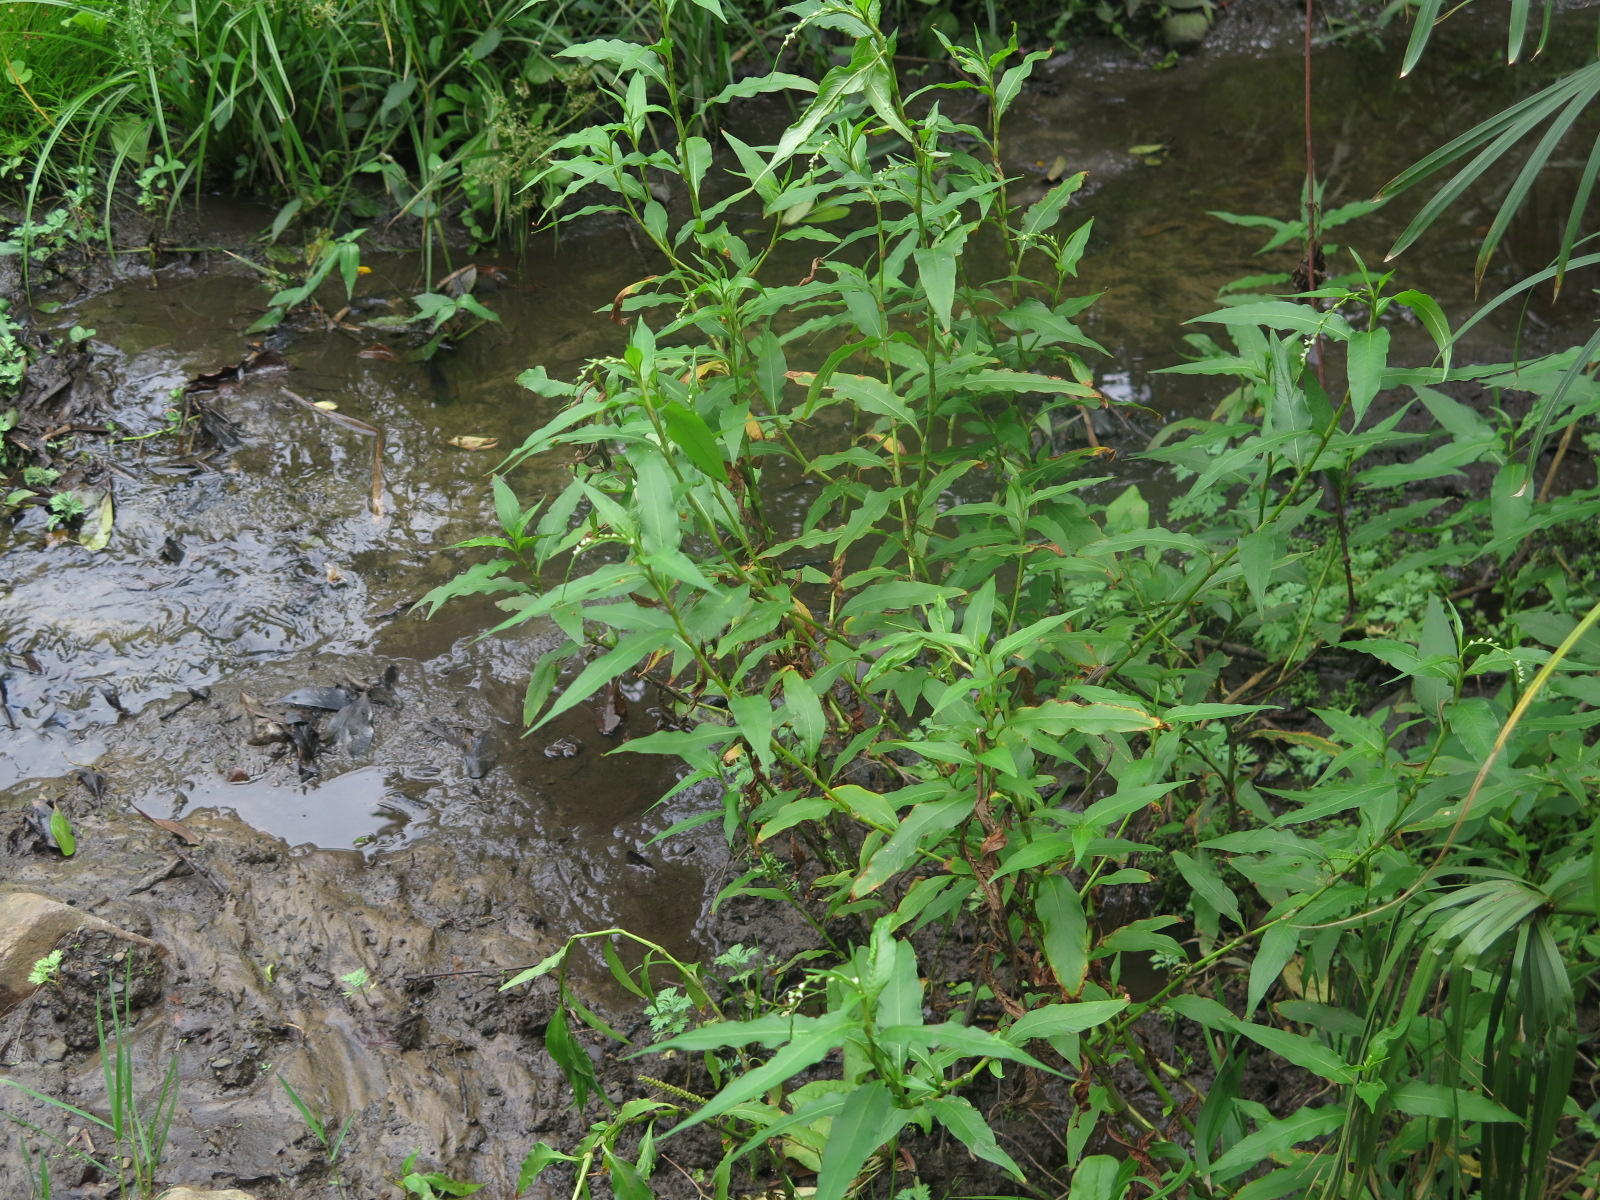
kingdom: Plantae
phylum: Tracheophyta
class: Magnoliopsida
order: Caryophyllales
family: Polygonaceae
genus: Persicaria
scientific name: Persicaria hydropiper
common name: Water-pepper
